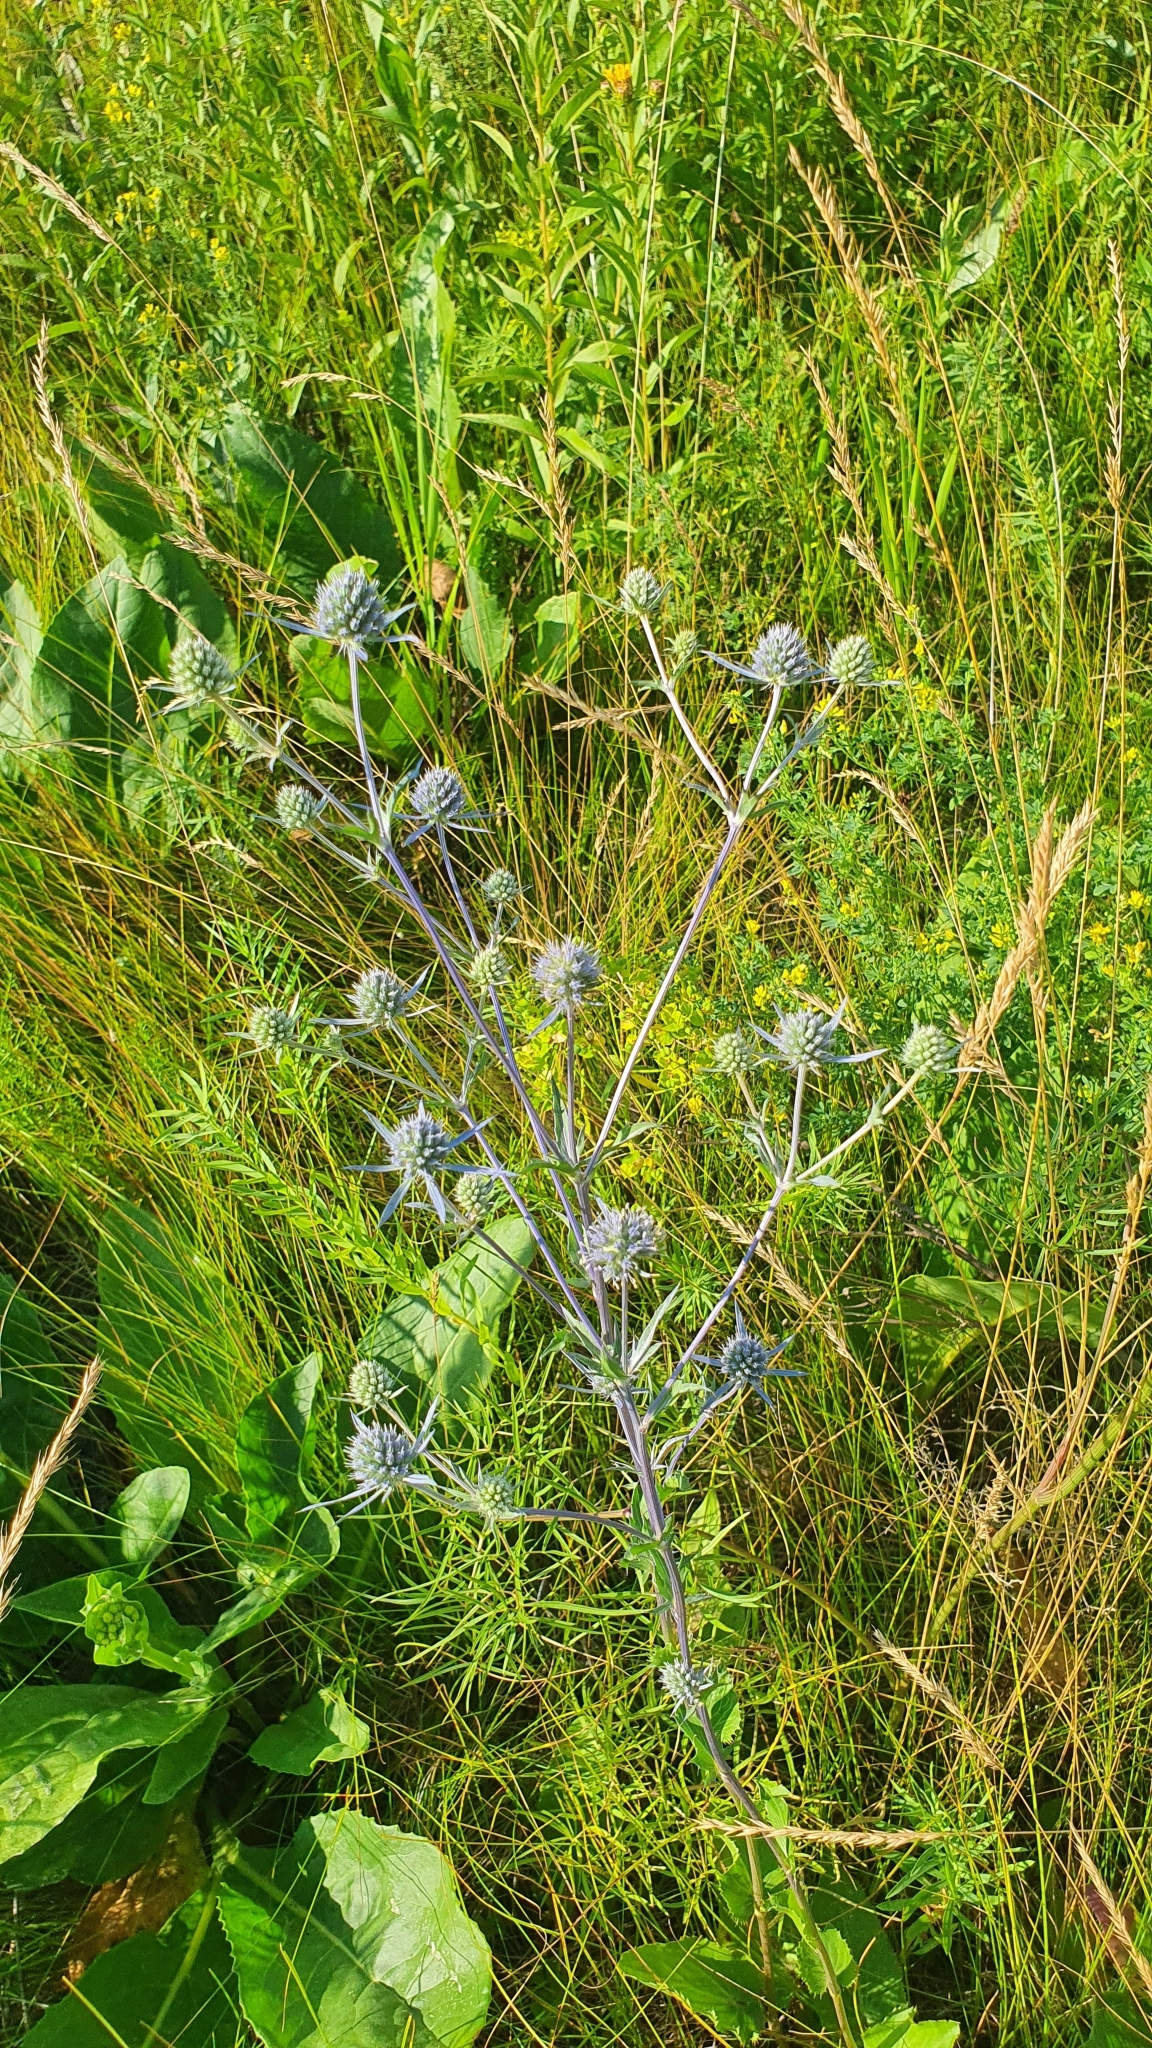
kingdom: Plantae
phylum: Tracheophyta
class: Magnoliopsida
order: Apiales
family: Apiaceae
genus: Eryngium
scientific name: Eryngium planum
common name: Blue eryngo
